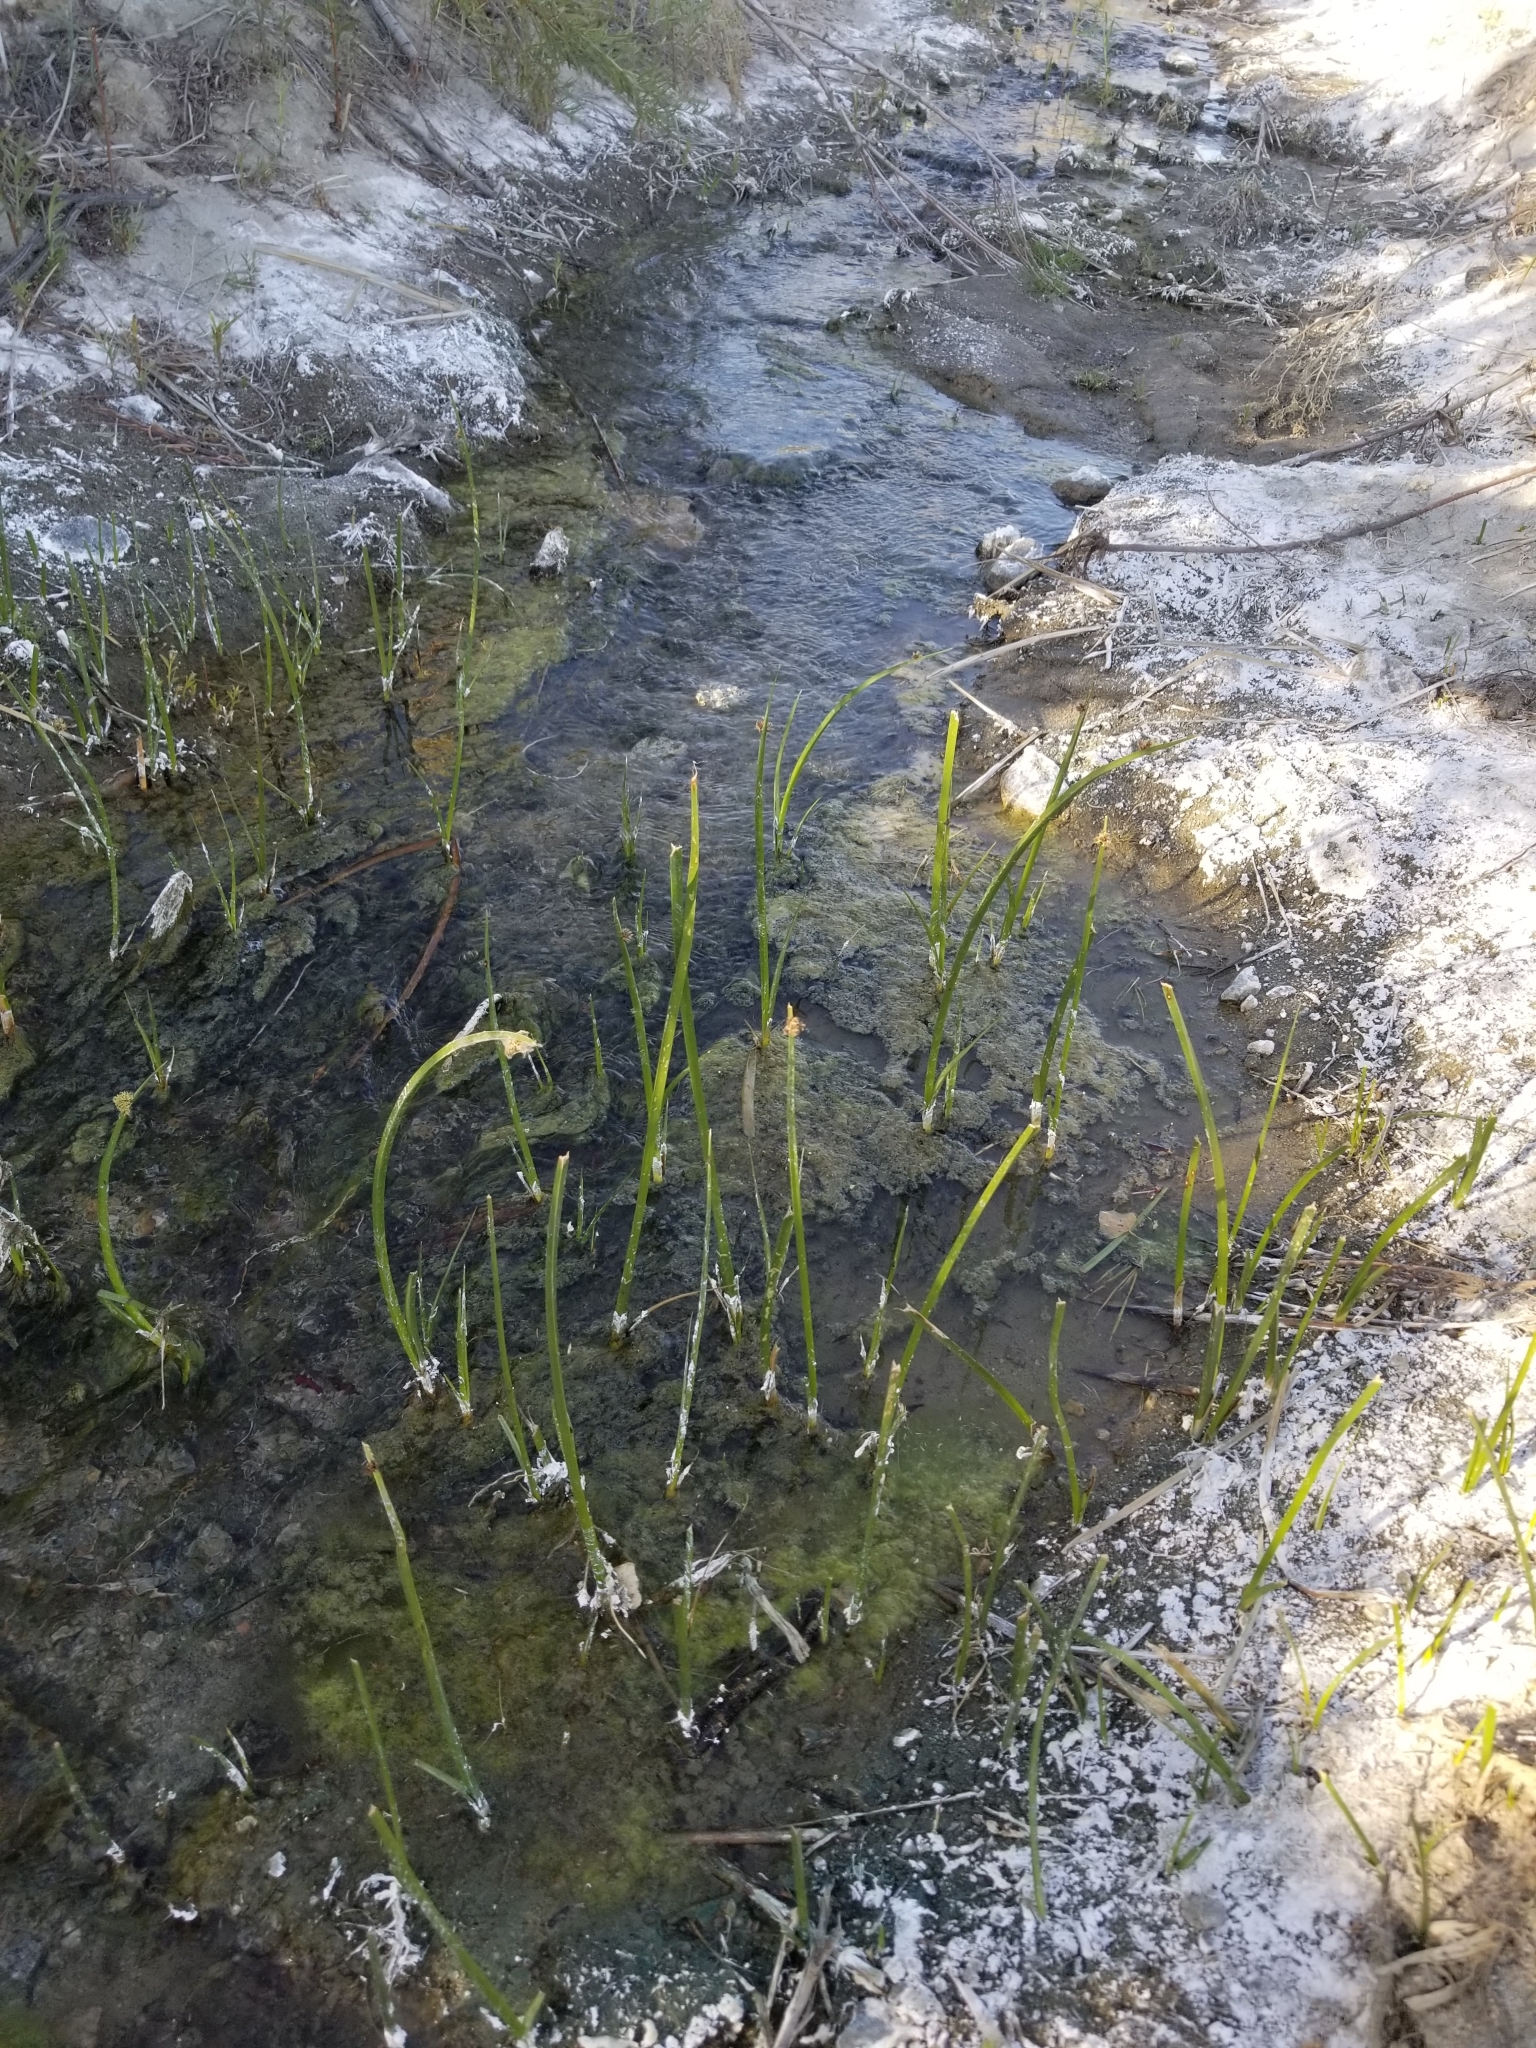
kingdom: Plantae
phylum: Tracheophyta
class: Liliopsida
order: Poales
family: Cyperaceae
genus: Schoenoplectus
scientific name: Schoenoplectus americanus
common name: American three-square bulrush
